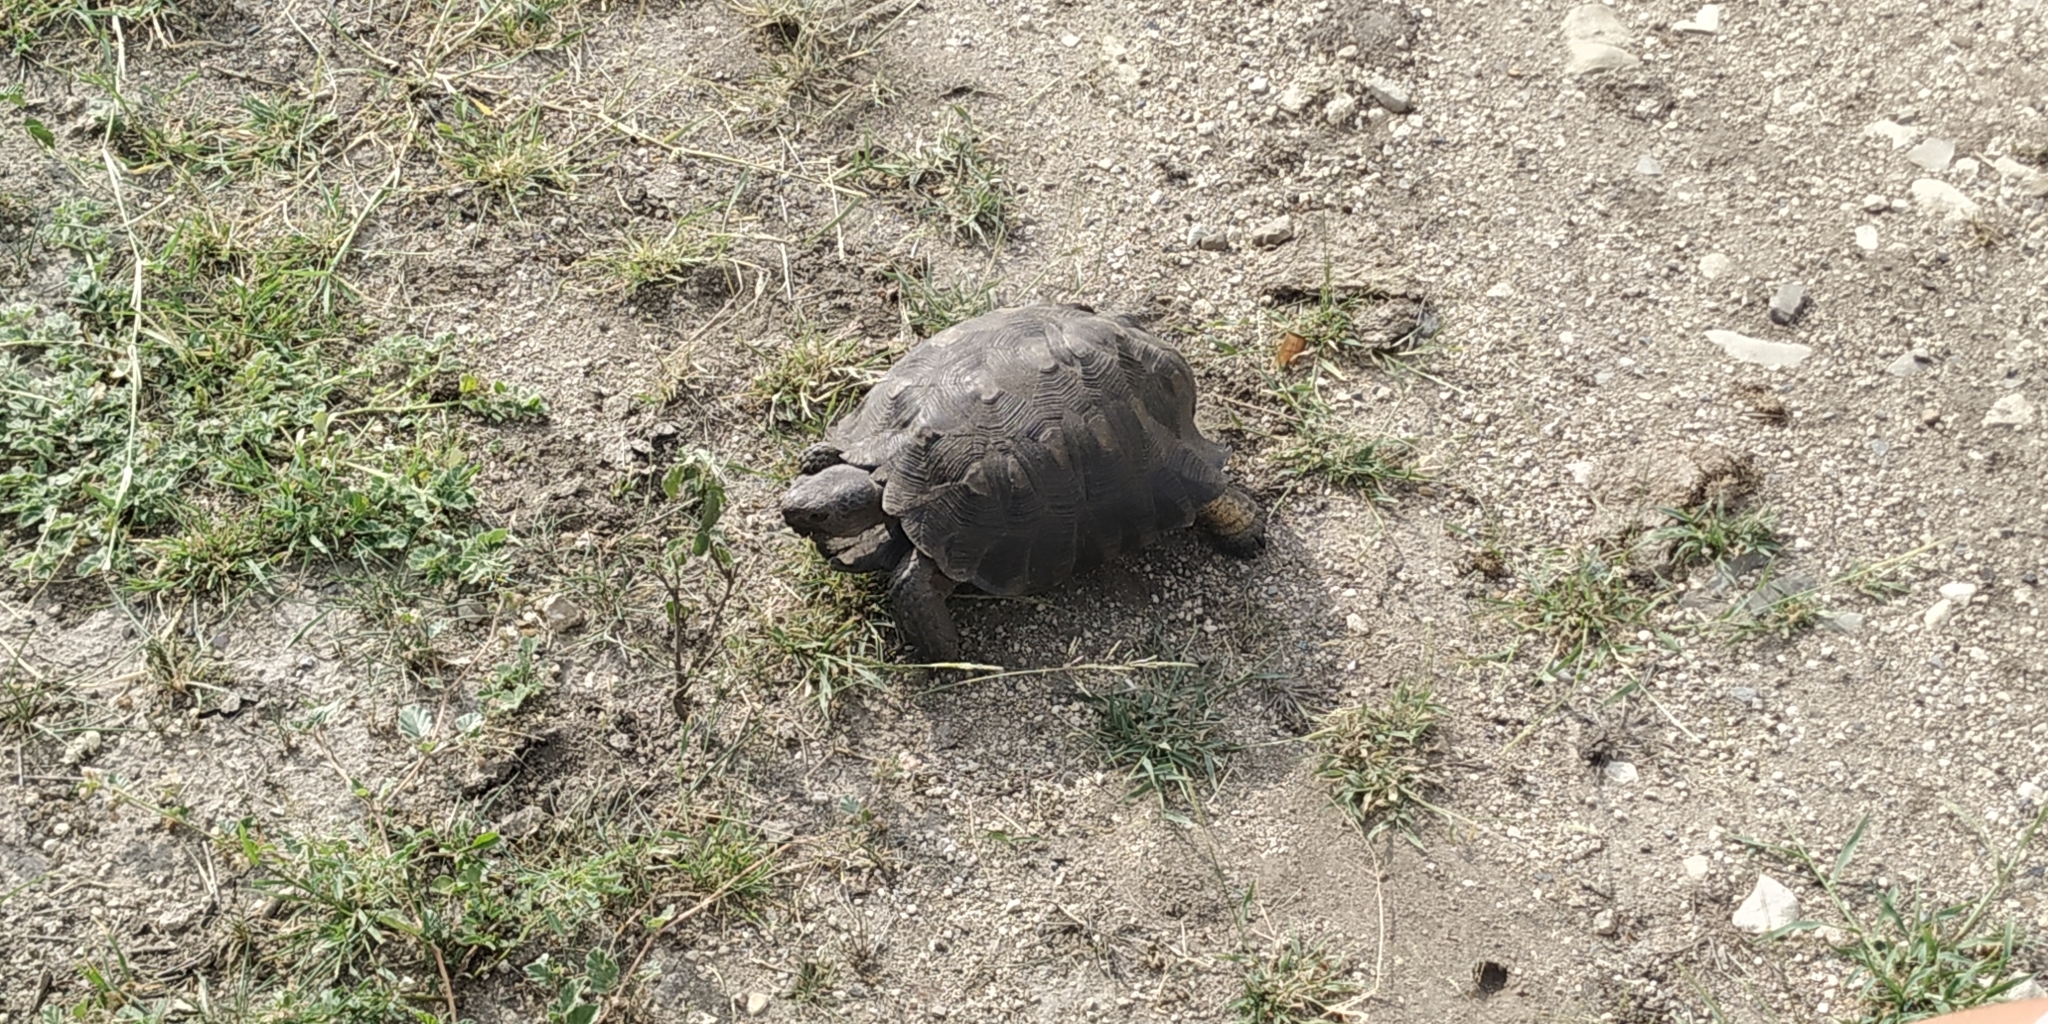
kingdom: Animalia
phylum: Chordata
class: Testudines
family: Testudinidae
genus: Gopherus
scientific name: Gopherus berlandieri
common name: Texas (gopher )tortoise
